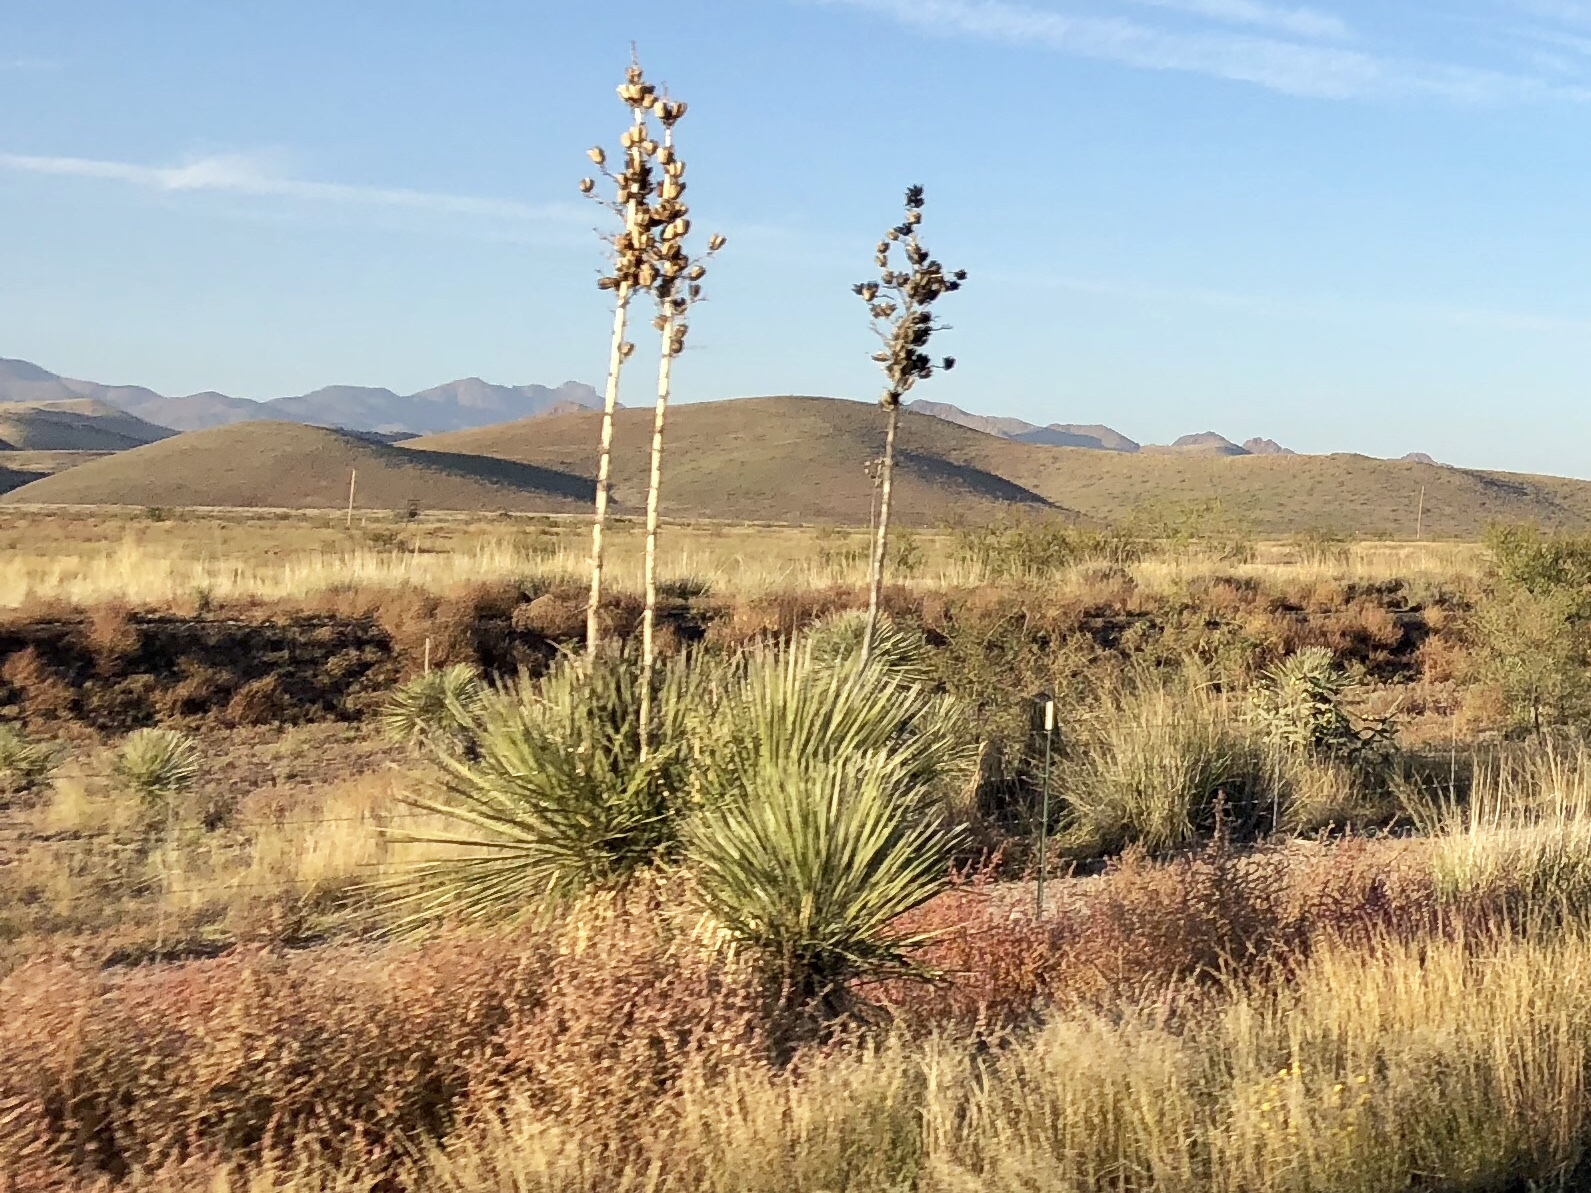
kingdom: Plantae
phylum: Tracheophyta
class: Liliopsida
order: Asparagales
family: Asparagaceae
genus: Yucca
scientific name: Yucca elata
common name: Palmella
